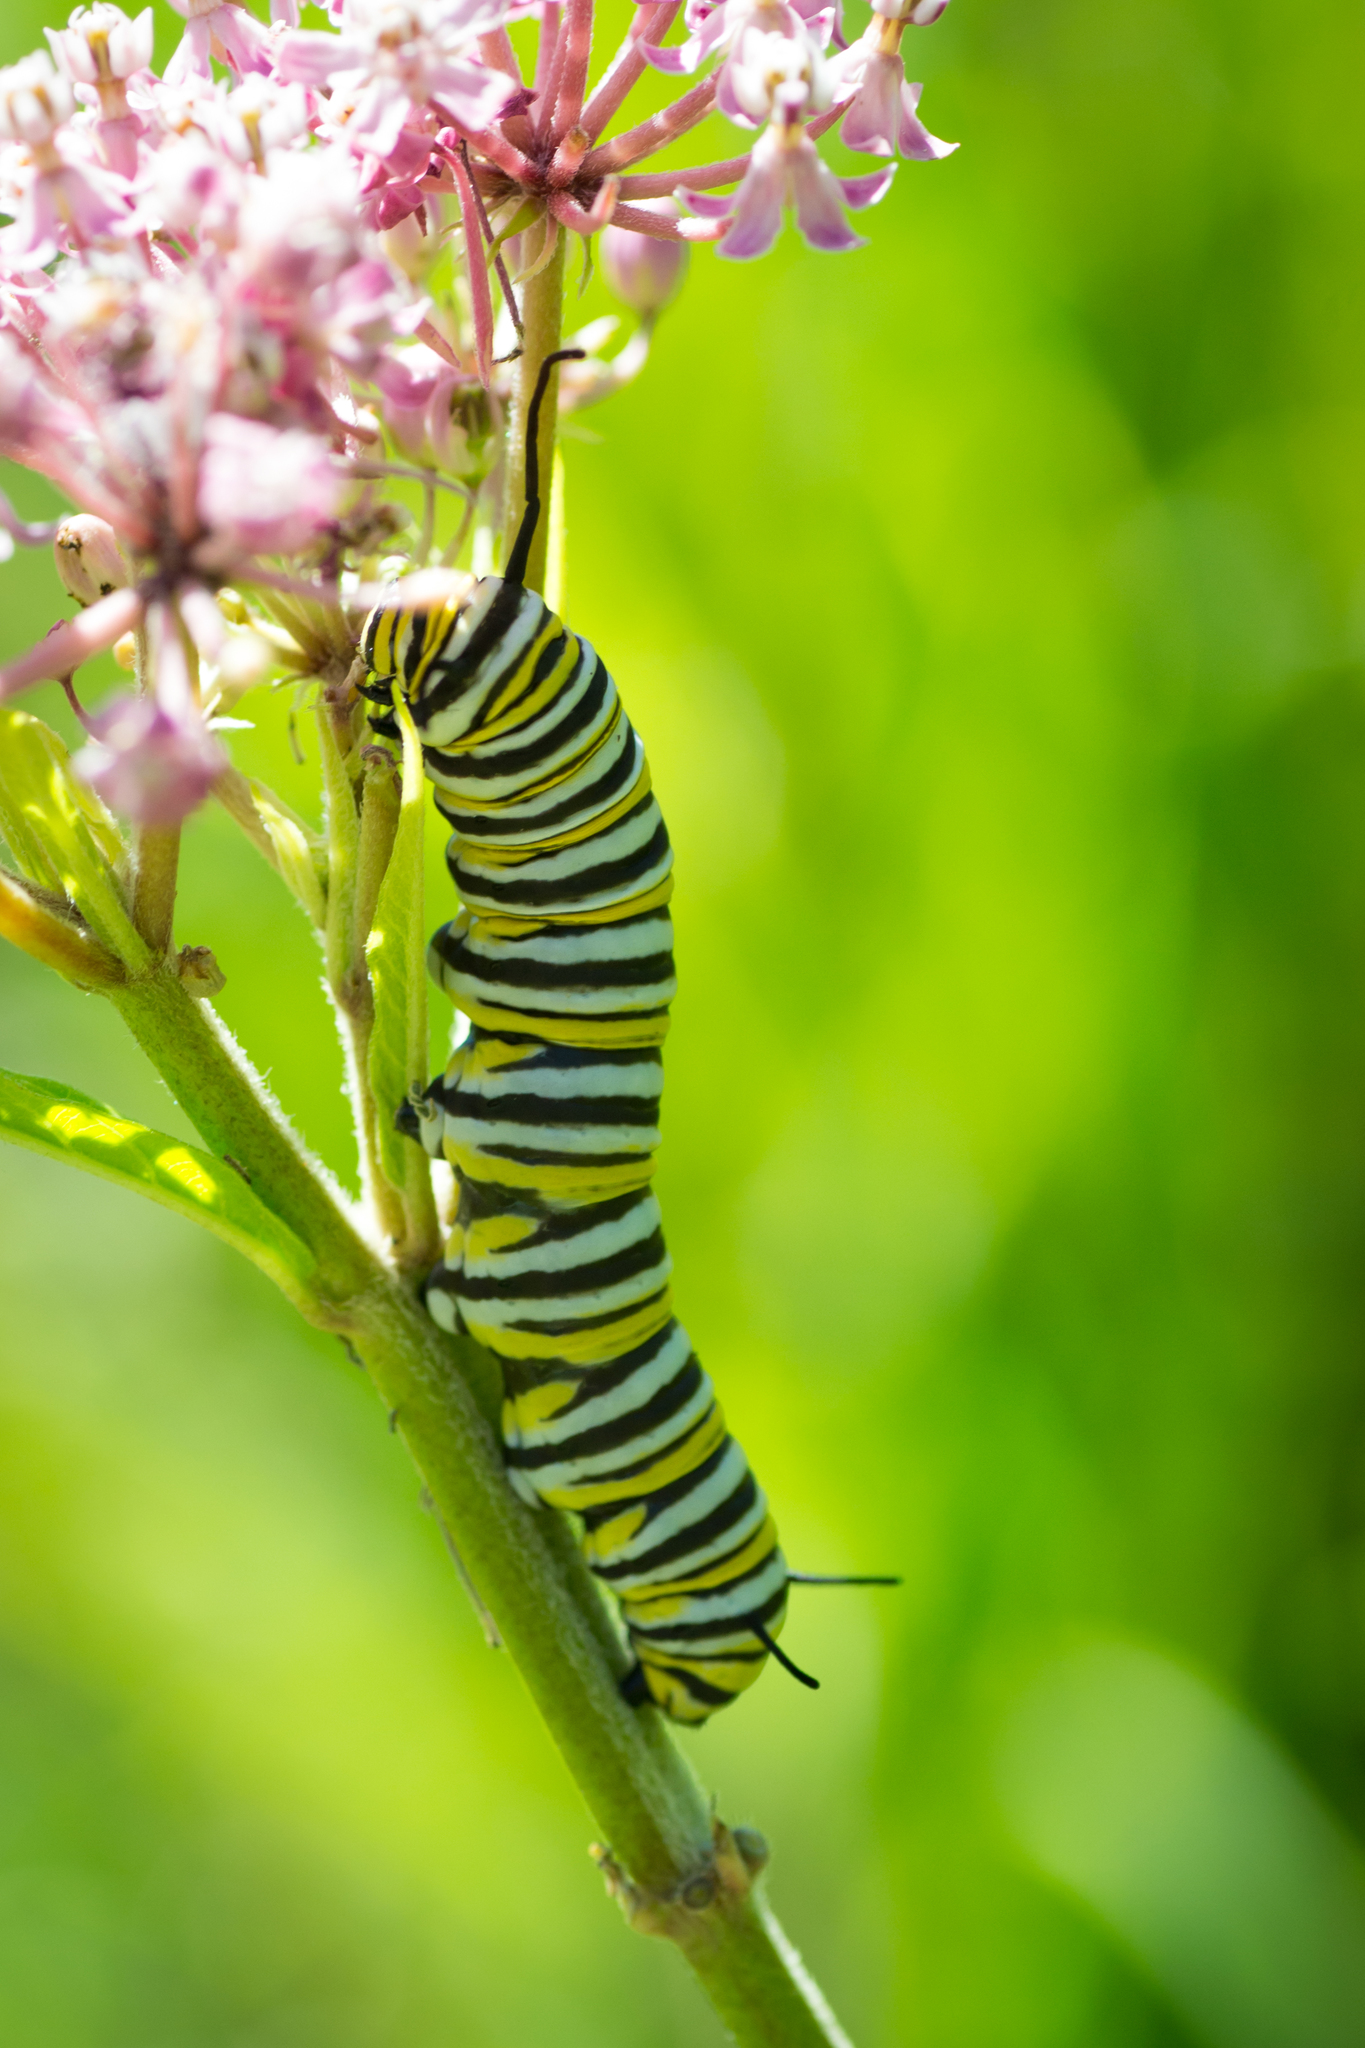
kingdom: Animalia
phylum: Arthropoda
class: Insecta
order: Lepidoptera
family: Nymphalidae
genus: Danaus
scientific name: Danaus plexippus
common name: Monarch
